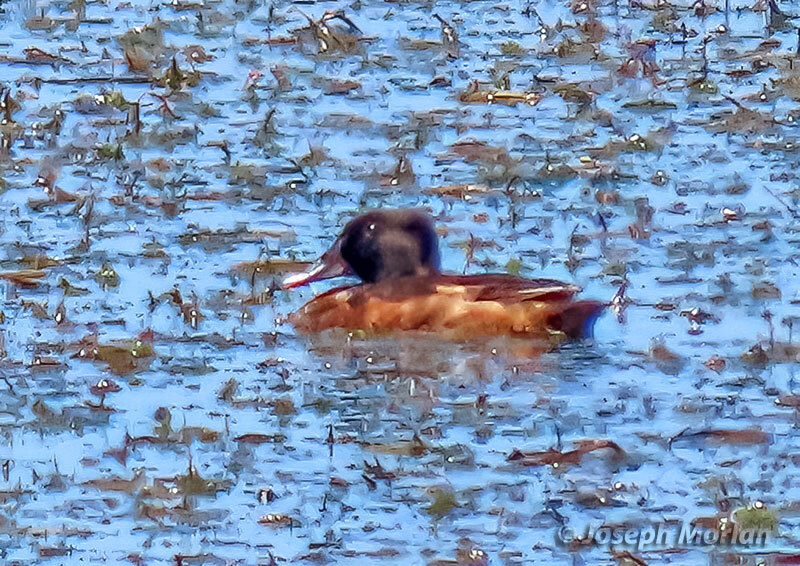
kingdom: Animalia
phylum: Chordata
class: Aves
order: Anseriformes
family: Anatidae
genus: Oxyura
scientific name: Oxyura vittata
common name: Lake duck
